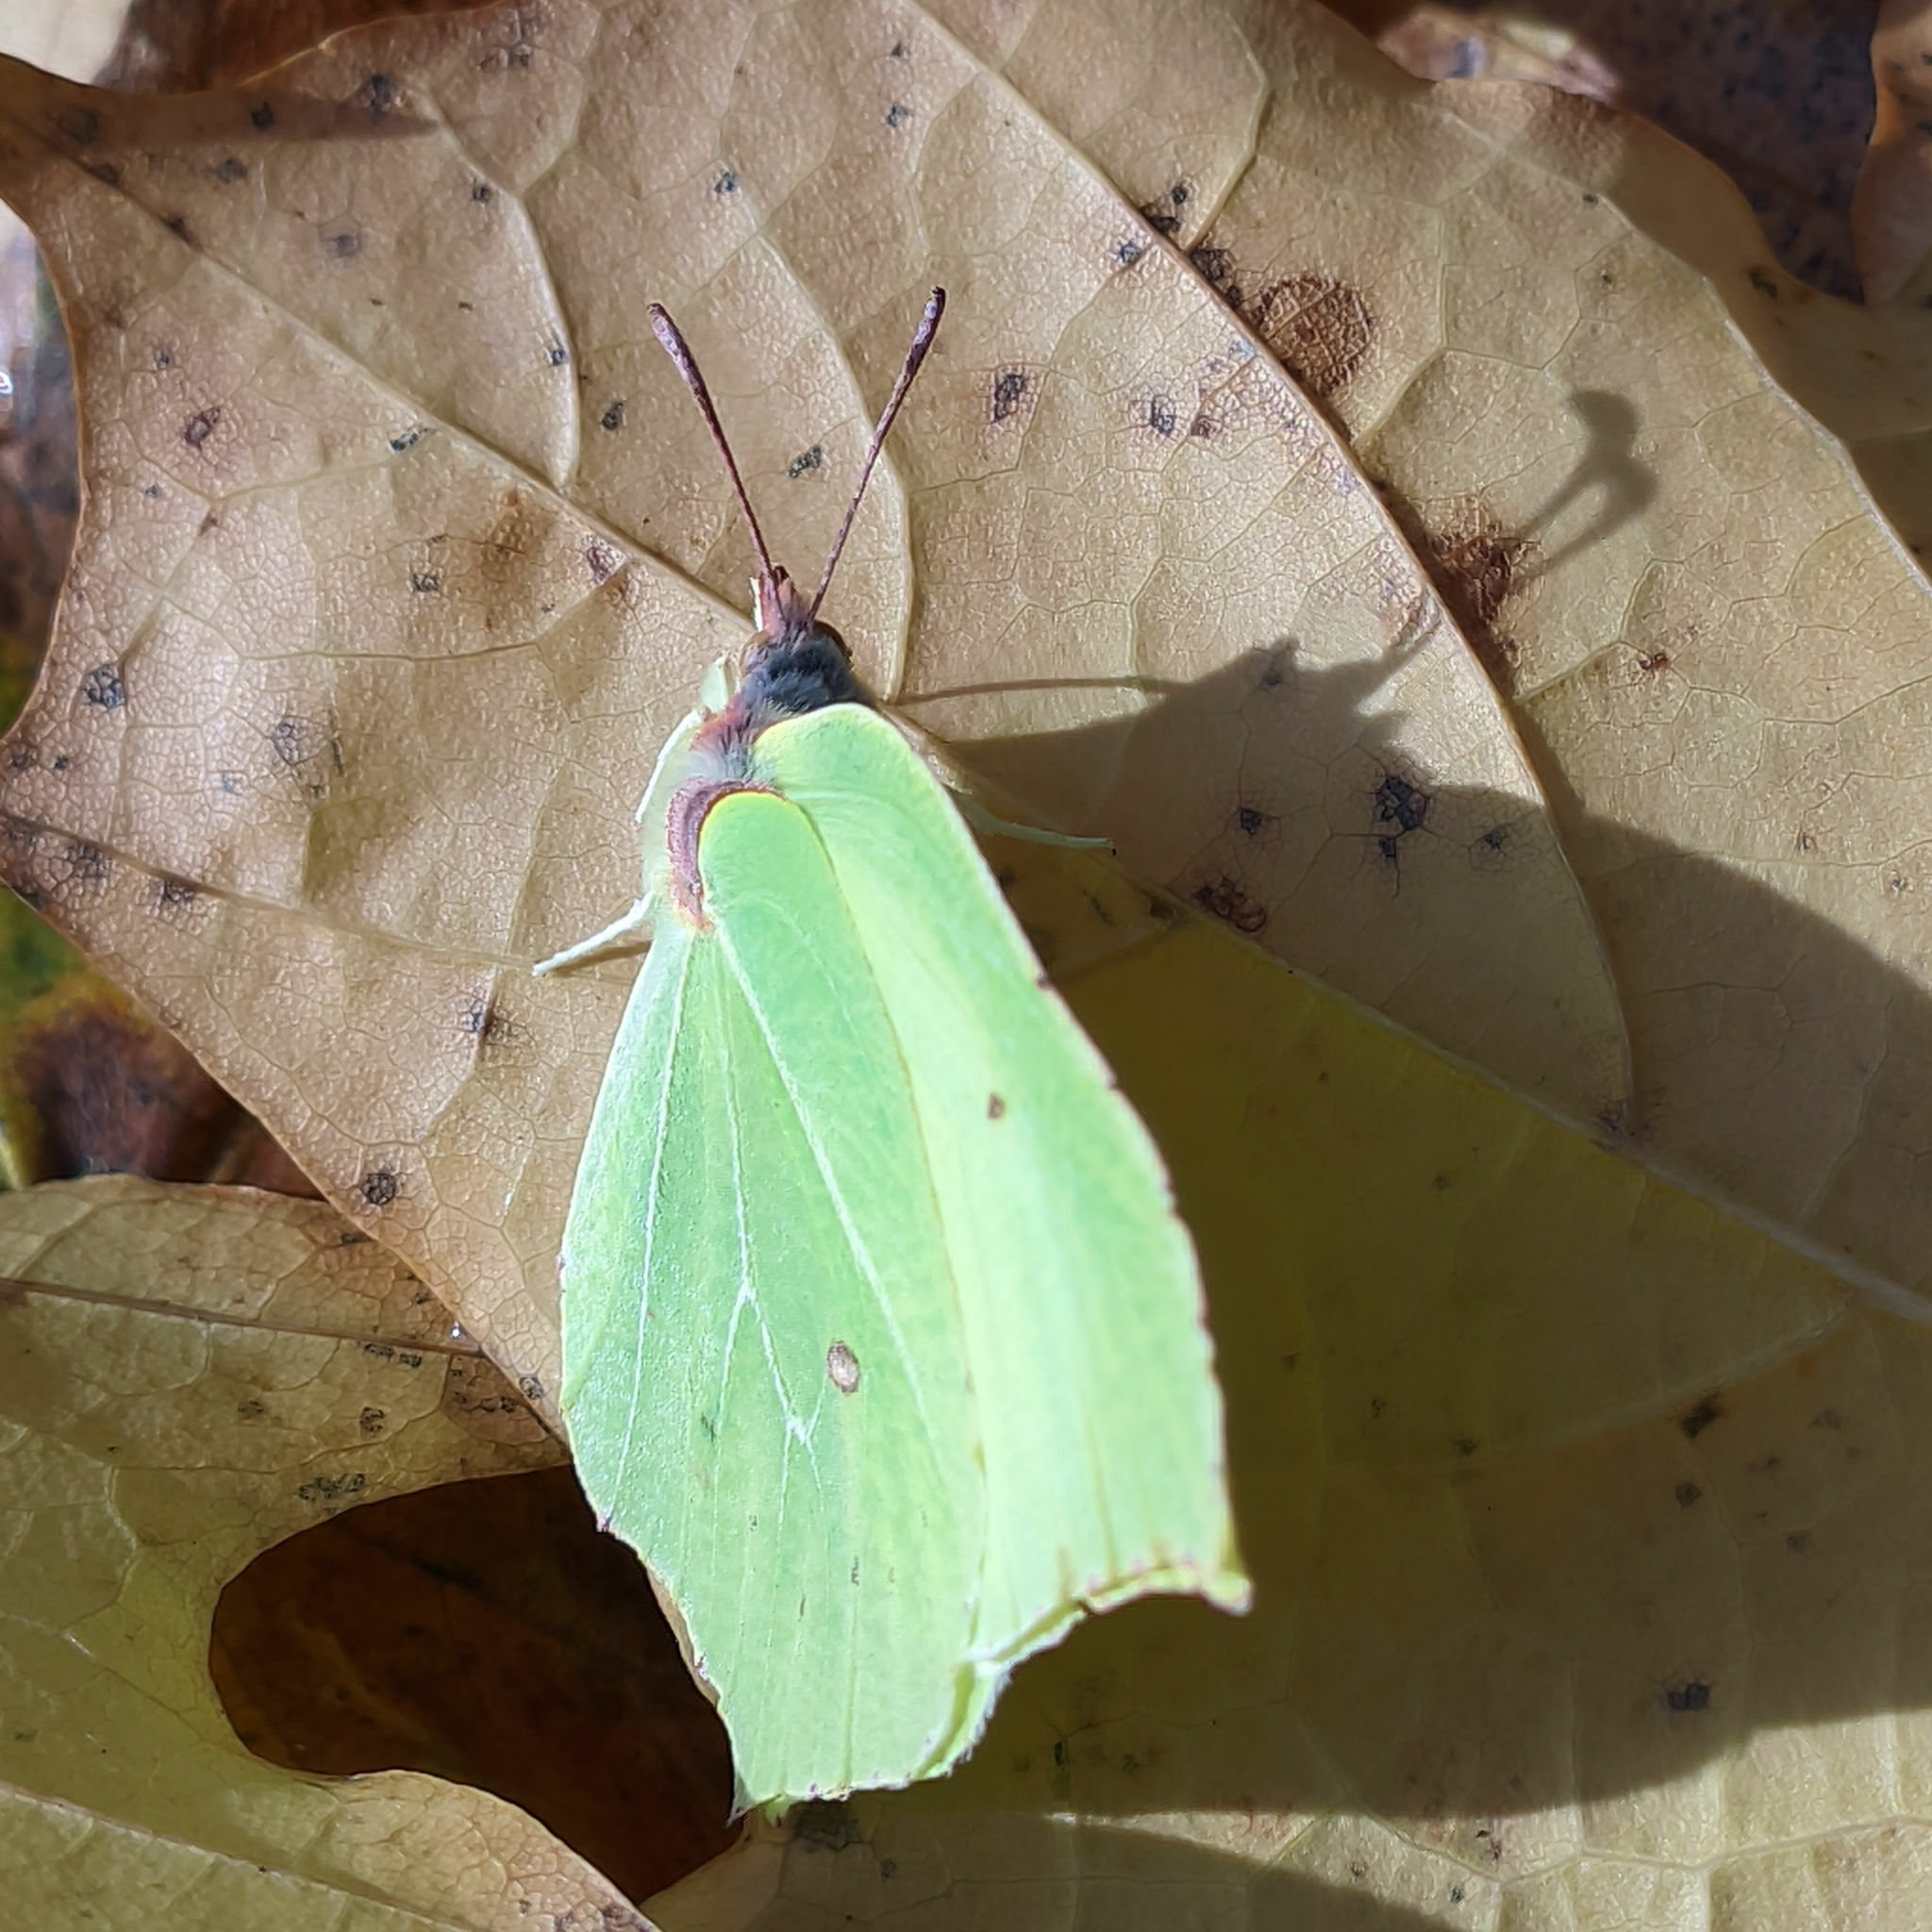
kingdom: Animalia
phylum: Arthropoda
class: Insecta
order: Lepidoptera
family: Pieridae
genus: Gonepteryx
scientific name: Gonepteryx rhamni
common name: Brimstone
